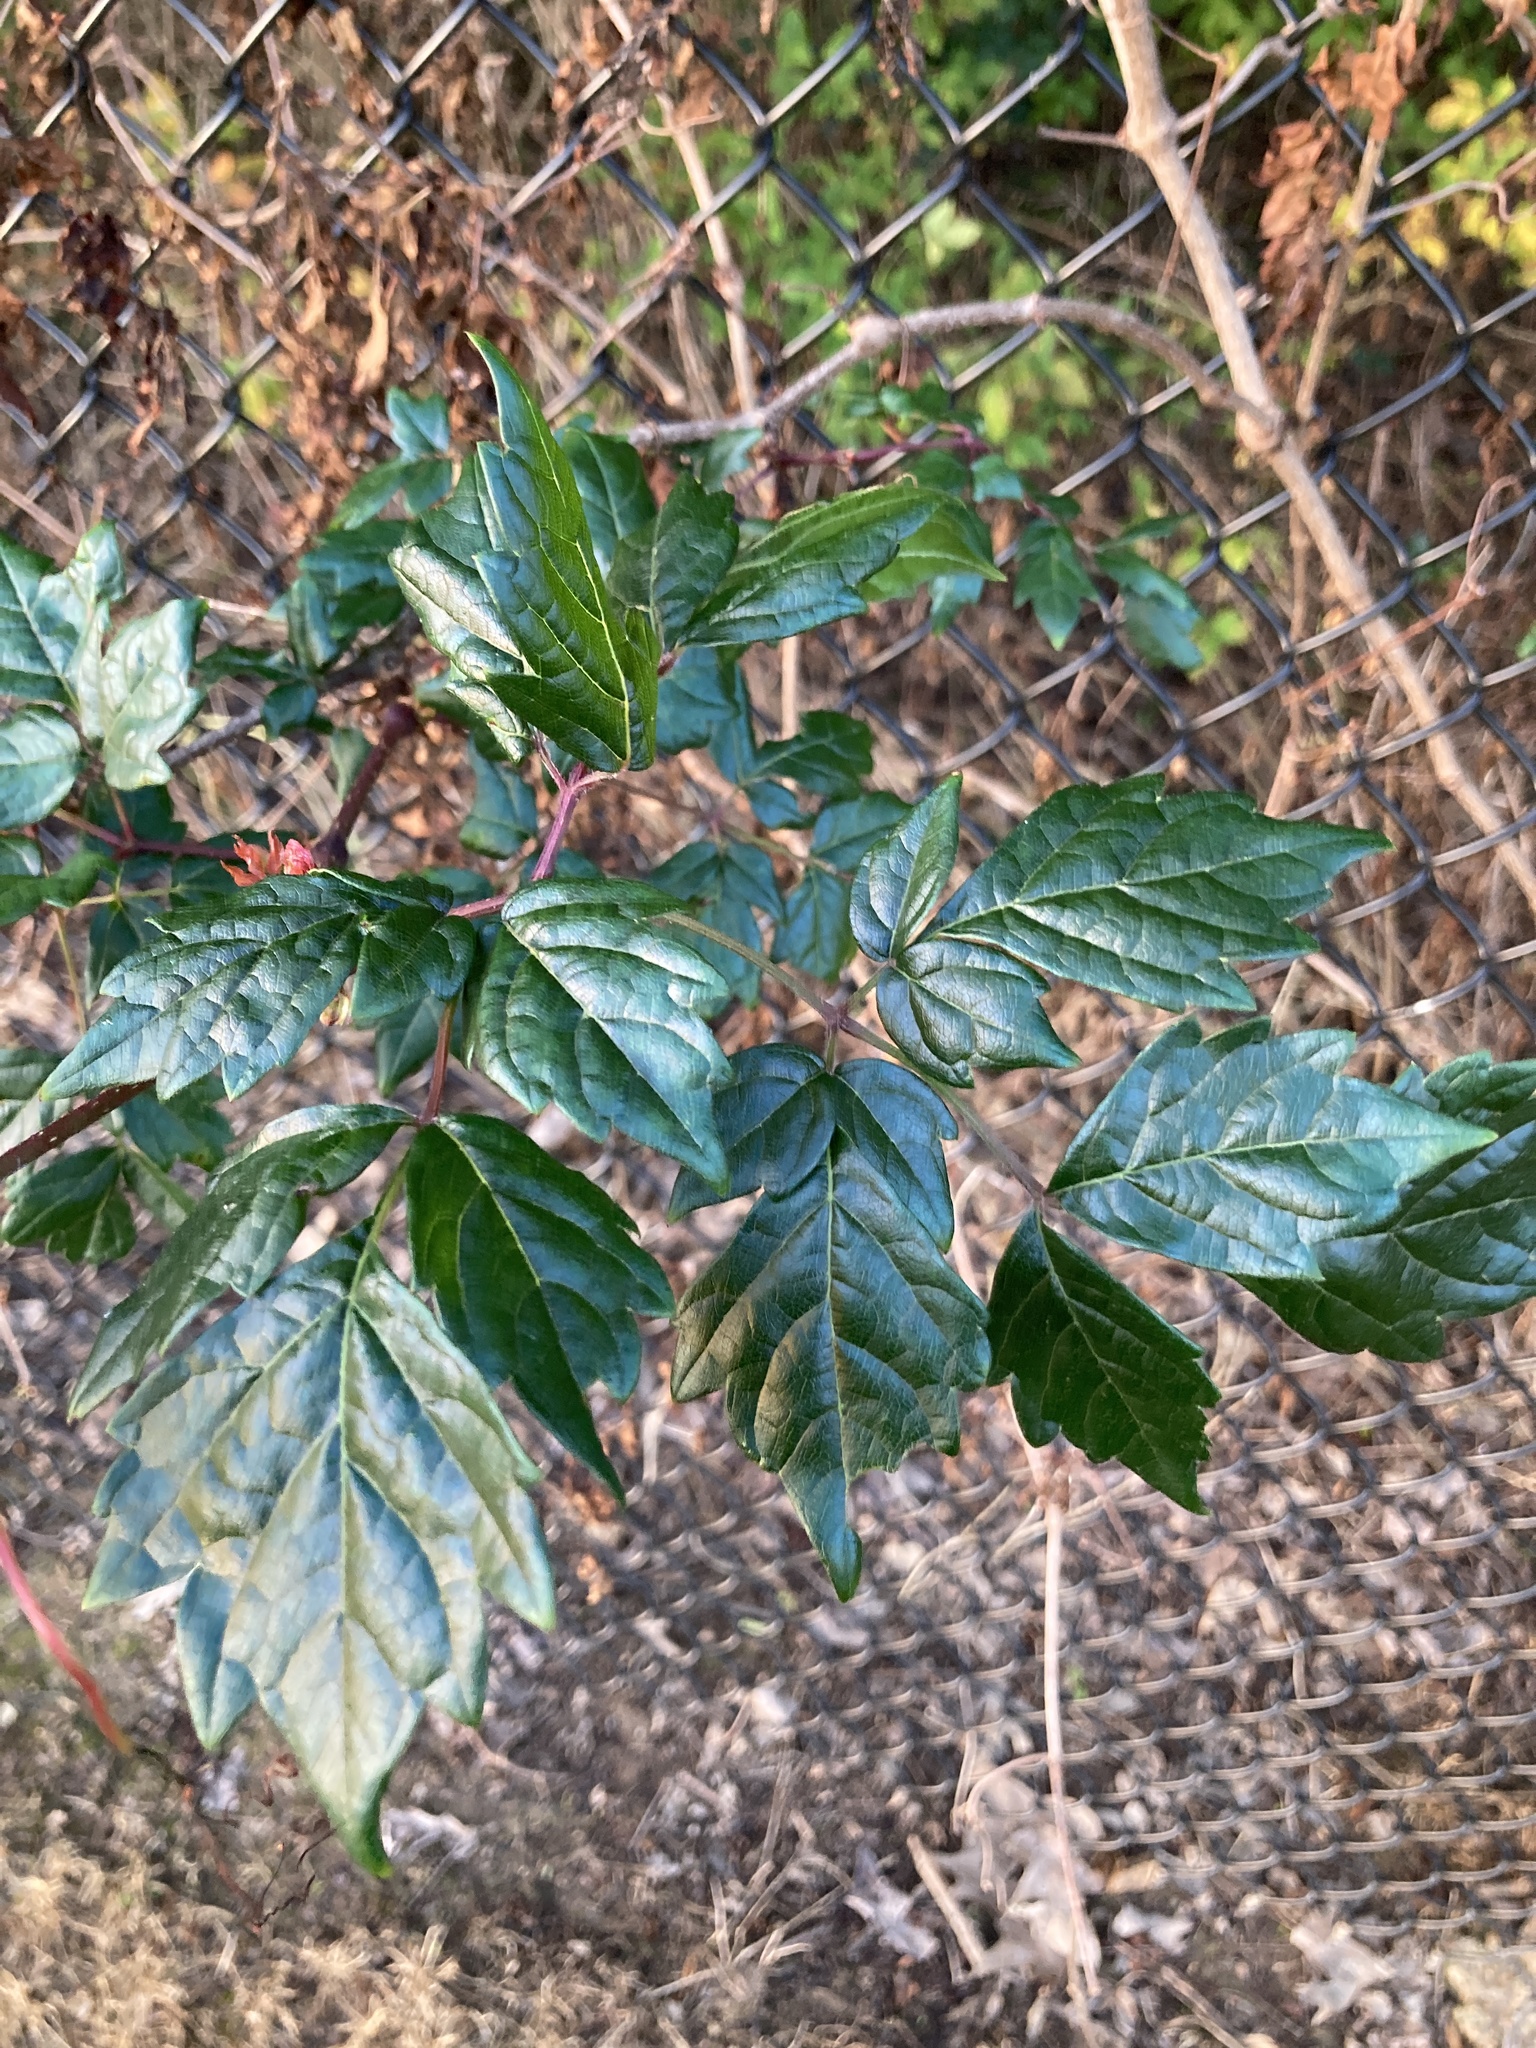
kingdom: Plantae
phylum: Tracheophyta
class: Magnoliopsida
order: Vitales
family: Vitaceae
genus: Nekemias
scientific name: Nekemias arborea
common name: Peppervine
